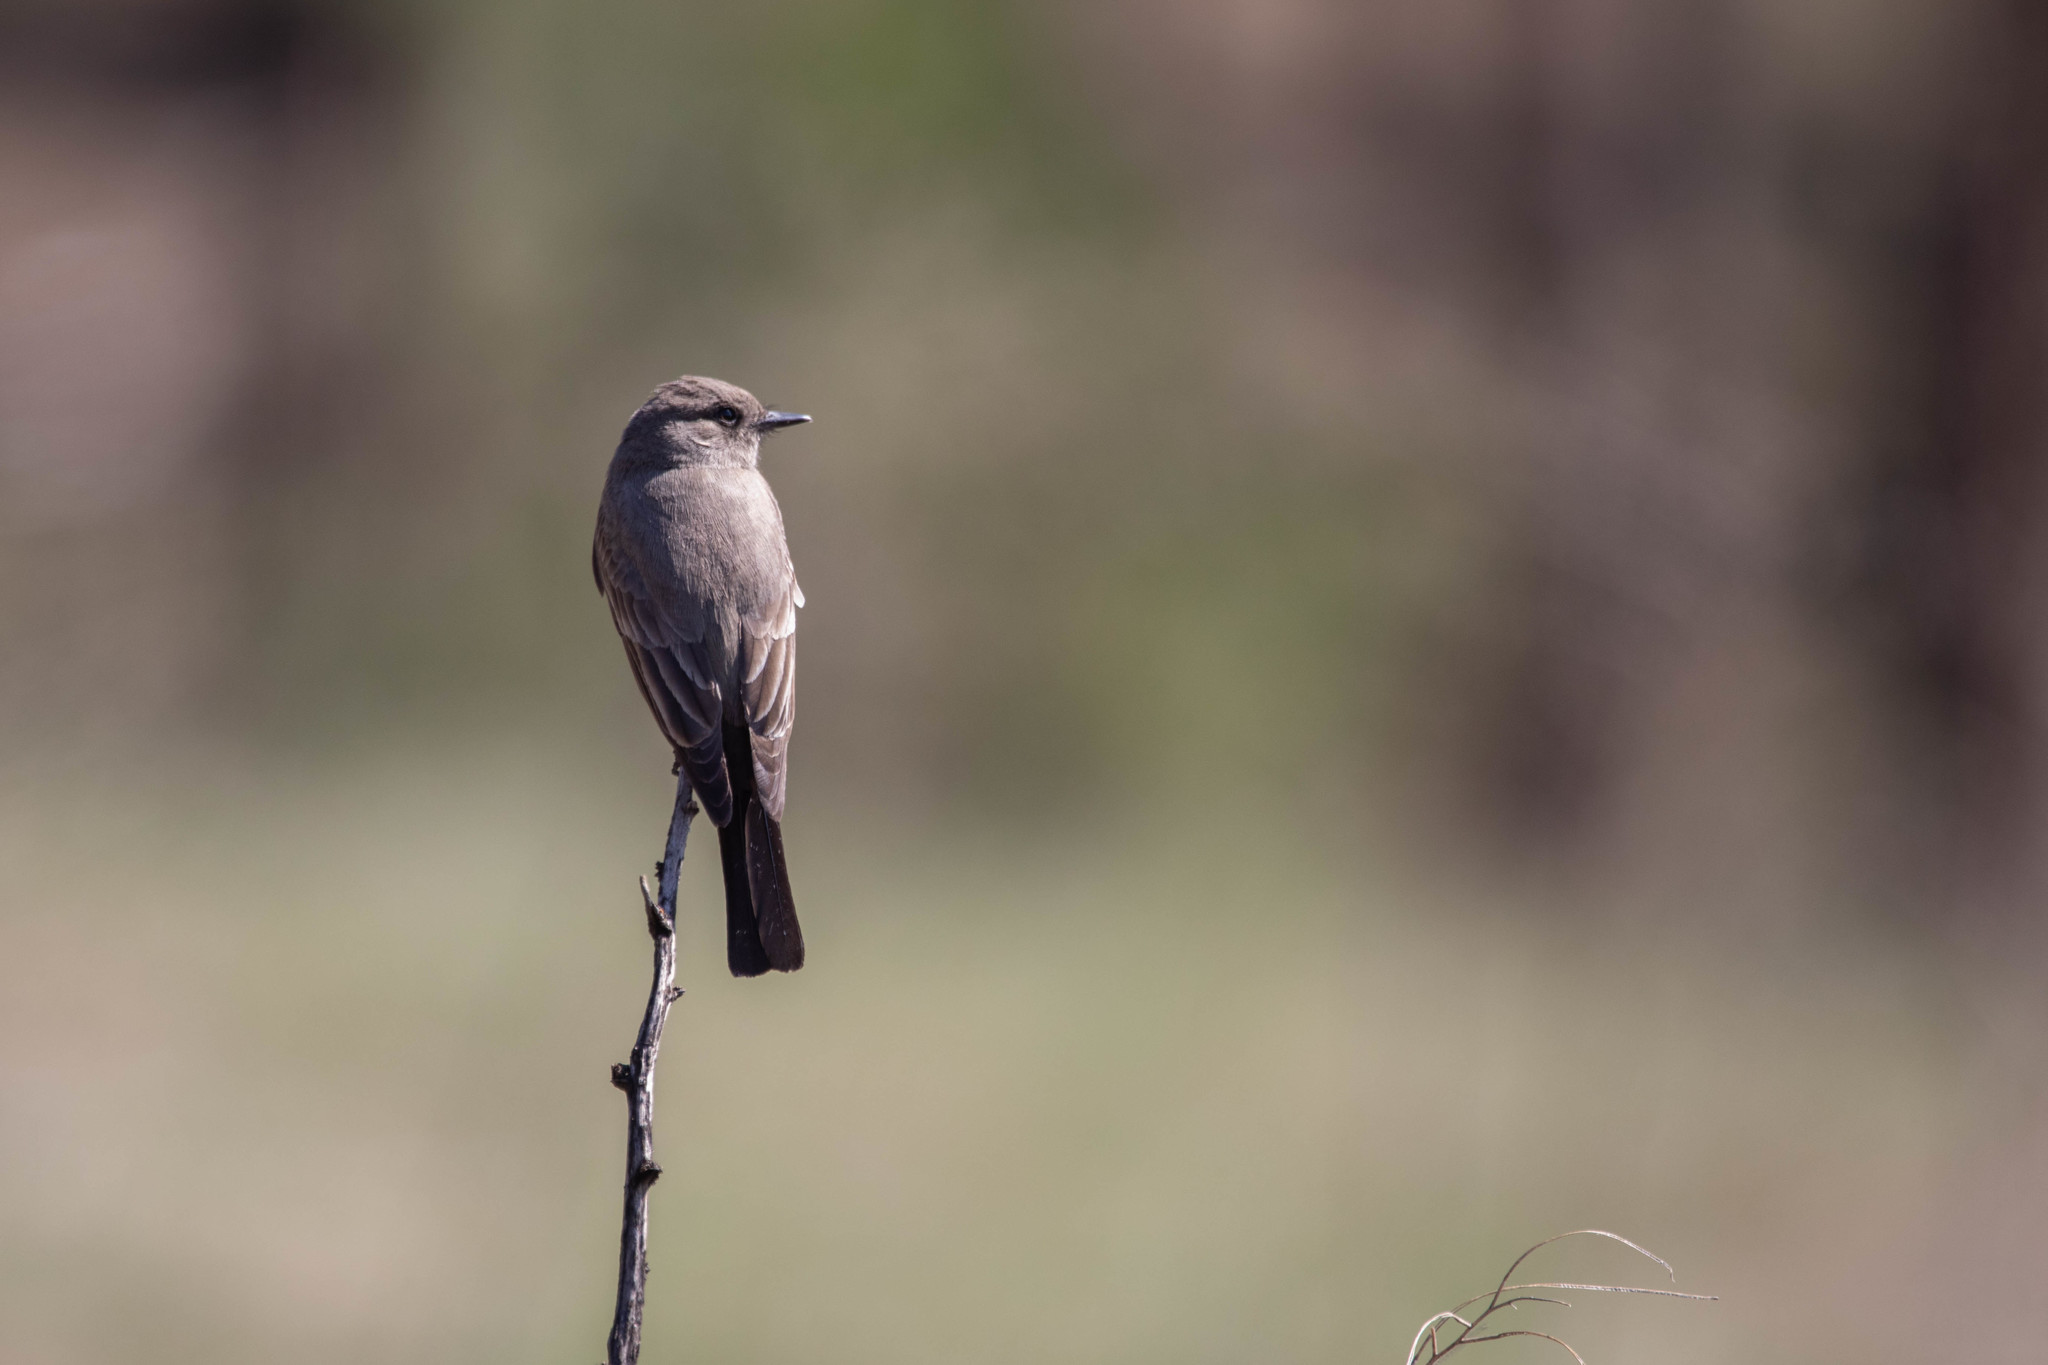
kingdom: Animalia
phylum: Chordata
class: Aves
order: Passeriformes
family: Tyrannidae
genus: Sayornis
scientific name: Sayornis saya
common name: Say's phoebe
